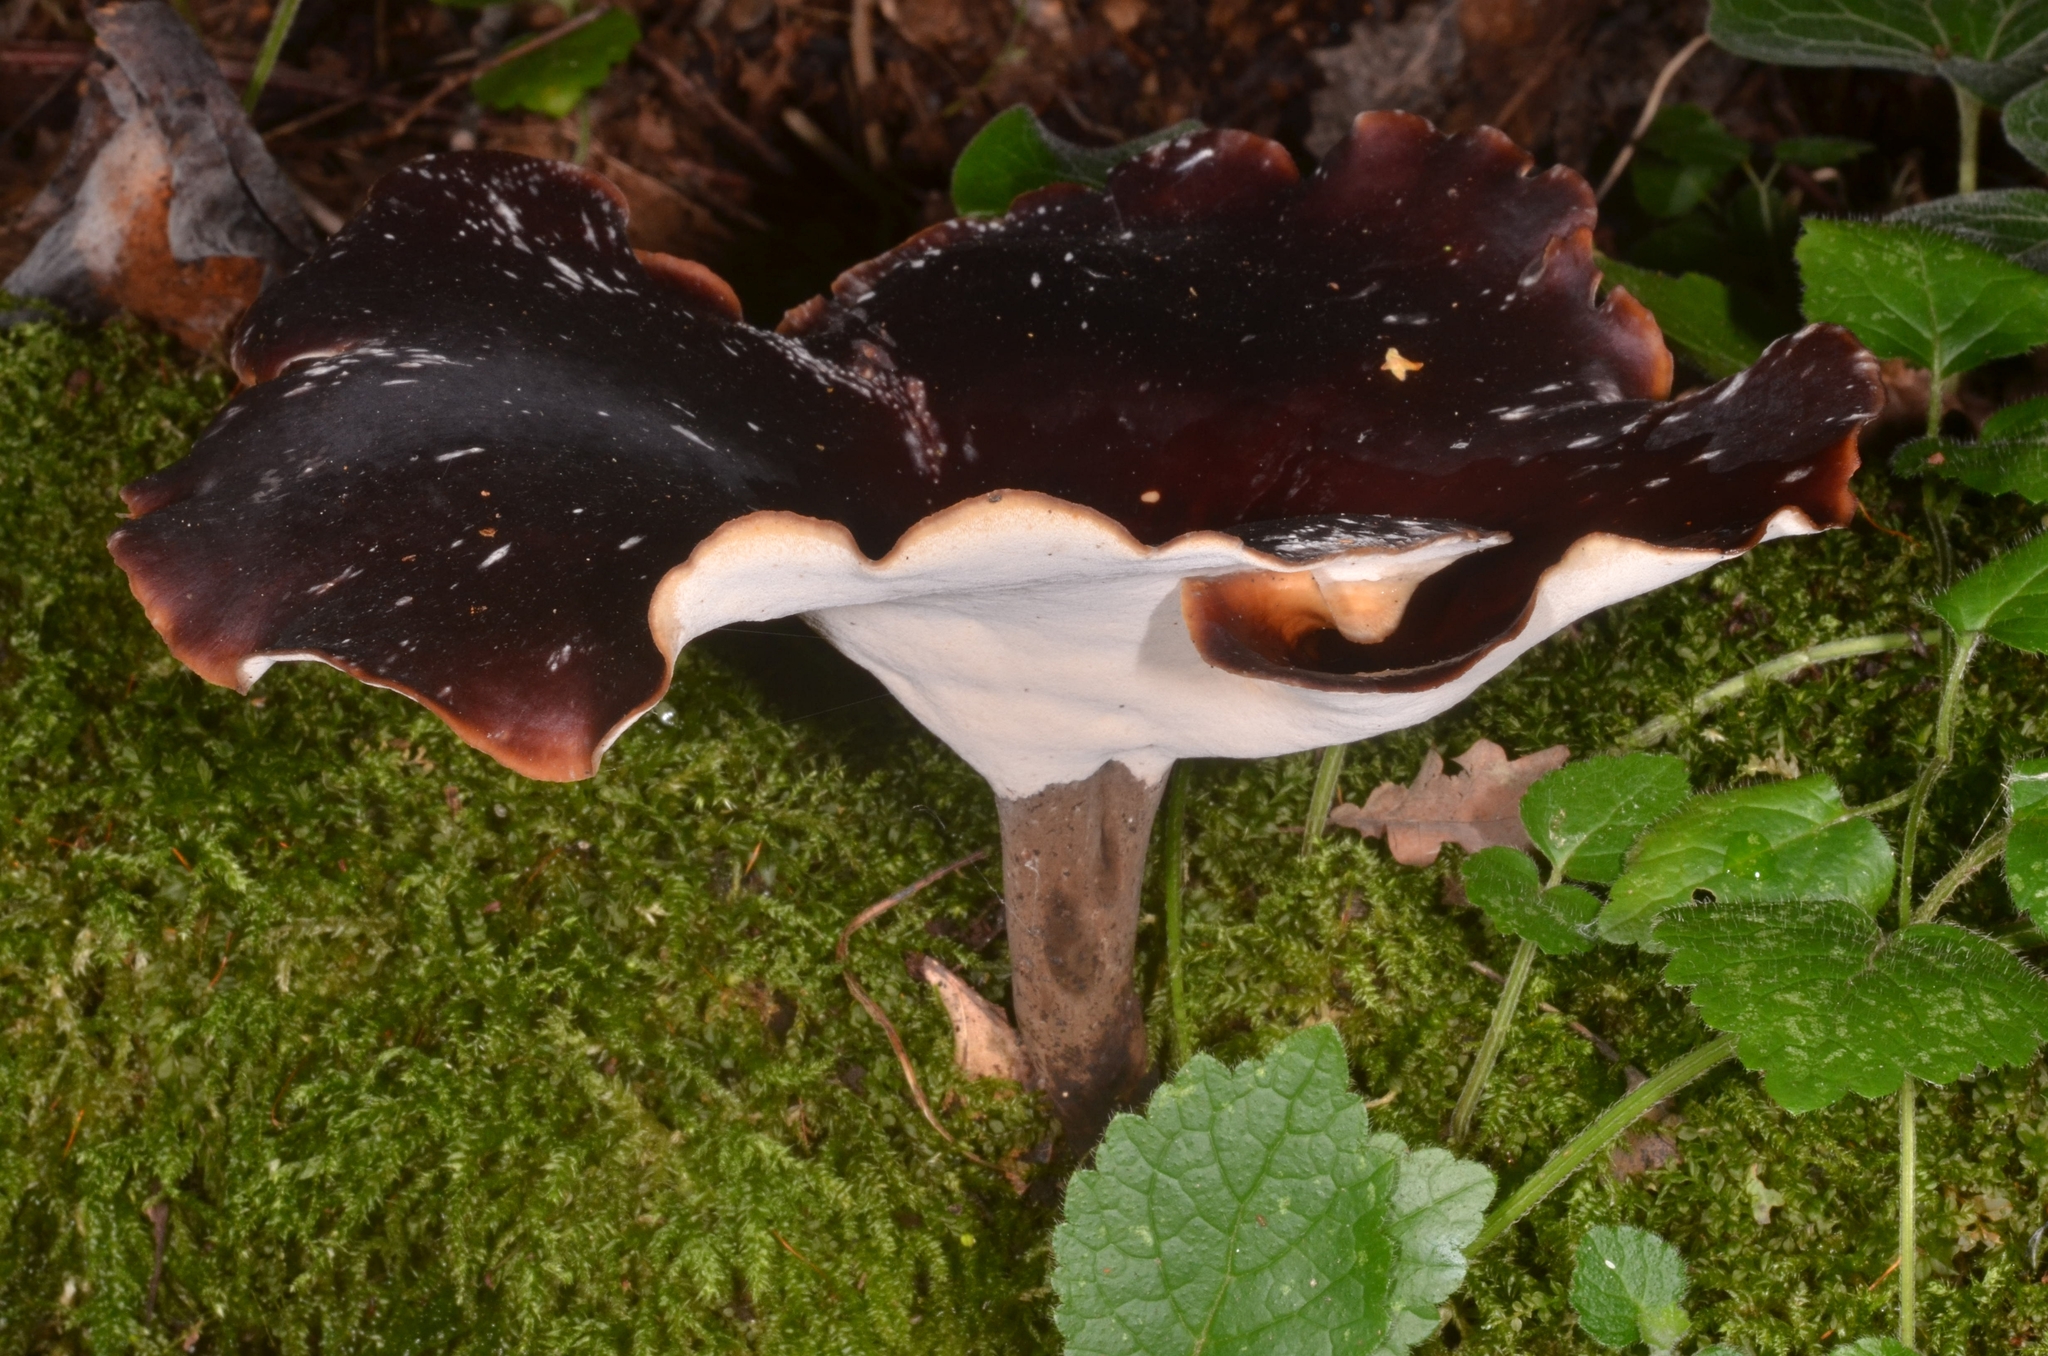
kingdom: Fungi
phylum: Basidiomycota
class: Agaricomycetes
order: Polyporales
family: Polyporaceae
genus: Picipes
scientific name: Picipes badius
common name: Bay polypore
